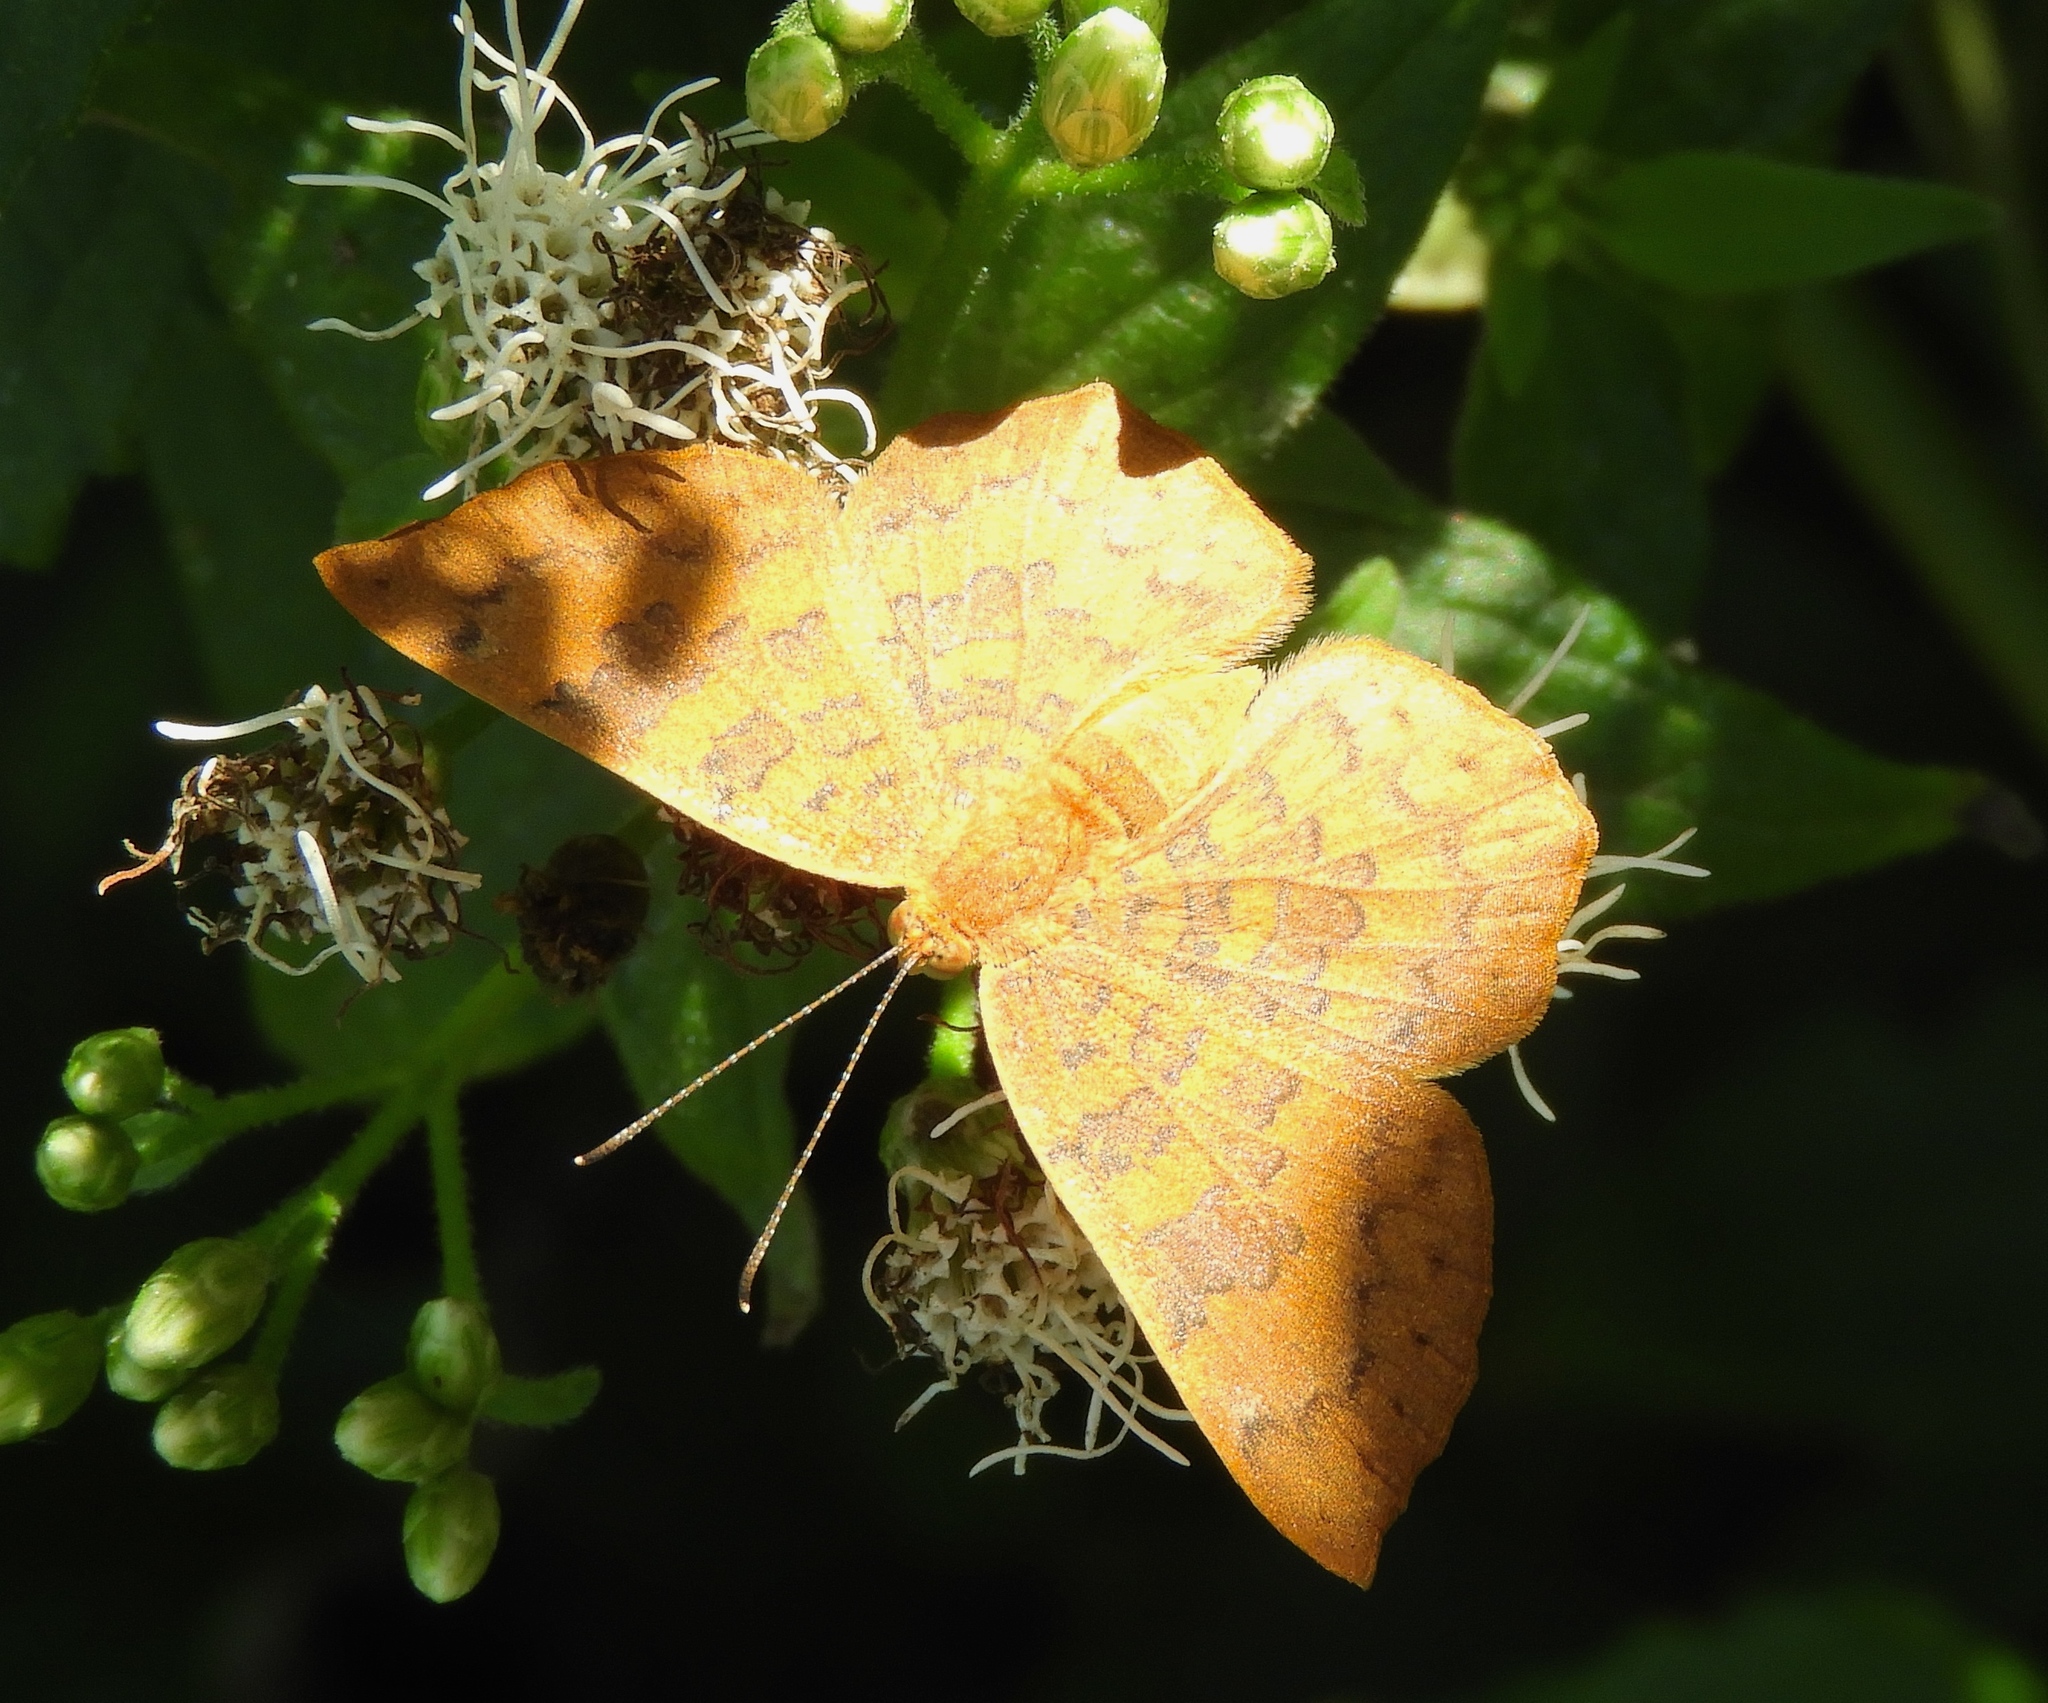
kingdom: Animalia
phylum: Arthropoda
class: Insecta
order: Lepidoptera
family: Lycaenidae
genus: Emesis
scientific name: Emesis tenedia
